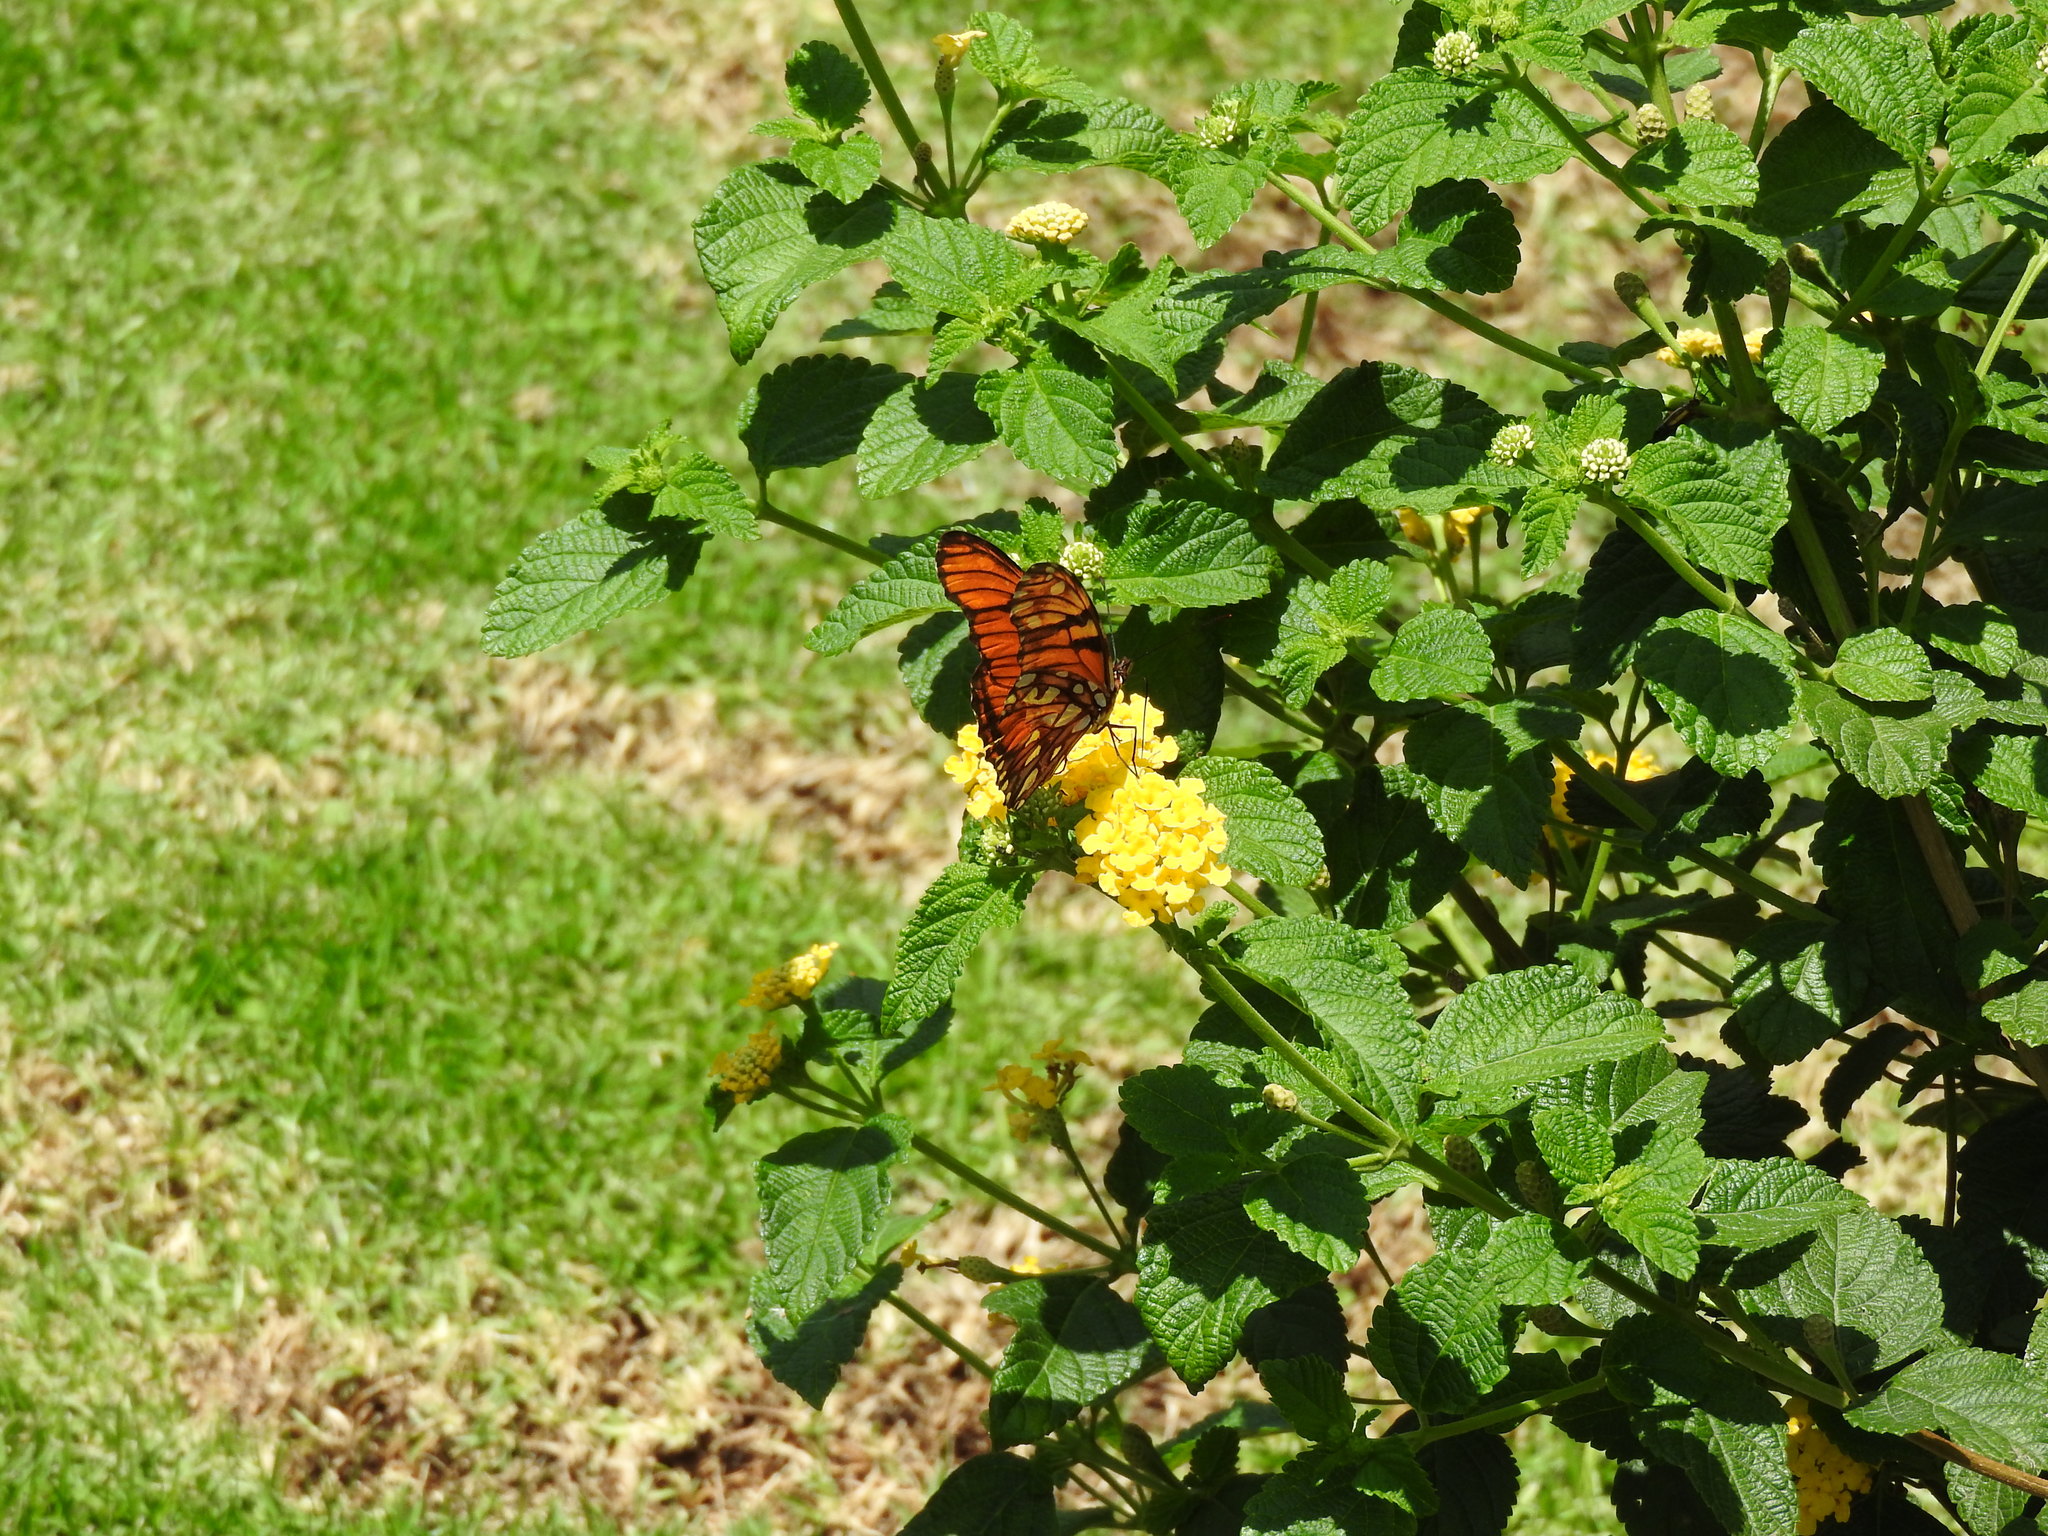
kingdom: Animalia
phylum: Arthropoda
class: Insecta
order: Lepidoptera
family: Nymphalidae
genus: Dione
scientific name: Dione juno
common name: Juno silverspot
